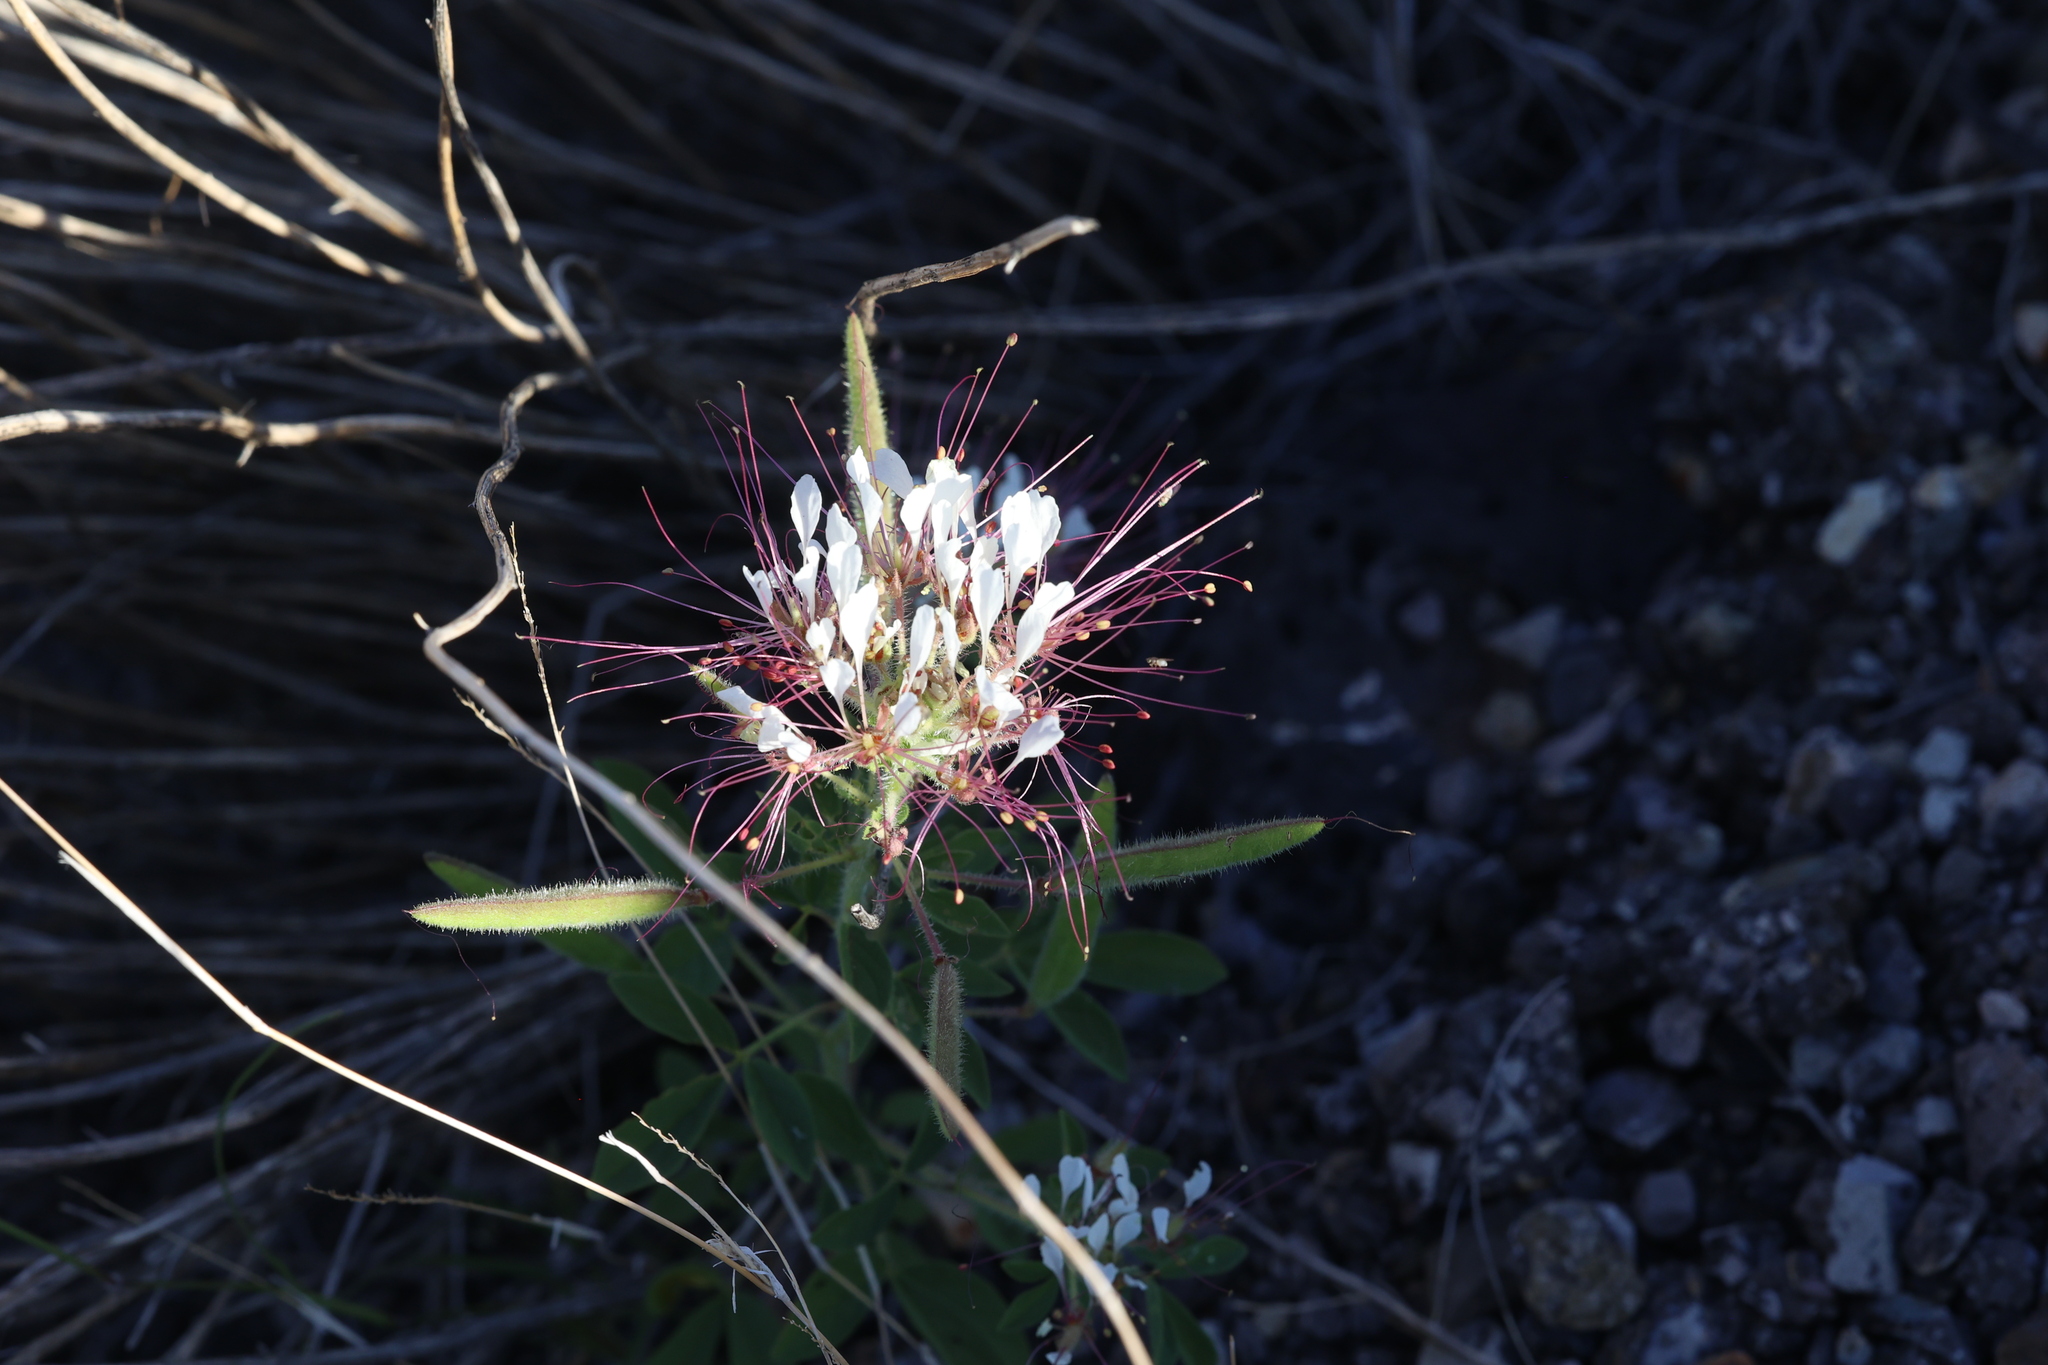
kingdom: Plantae
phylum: Tracheophyta
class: Magnoliopsida
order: Brassicales
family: Cleomaceae
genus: Polanisia
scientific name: Polanisia dodecandra
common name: Clammyweed
